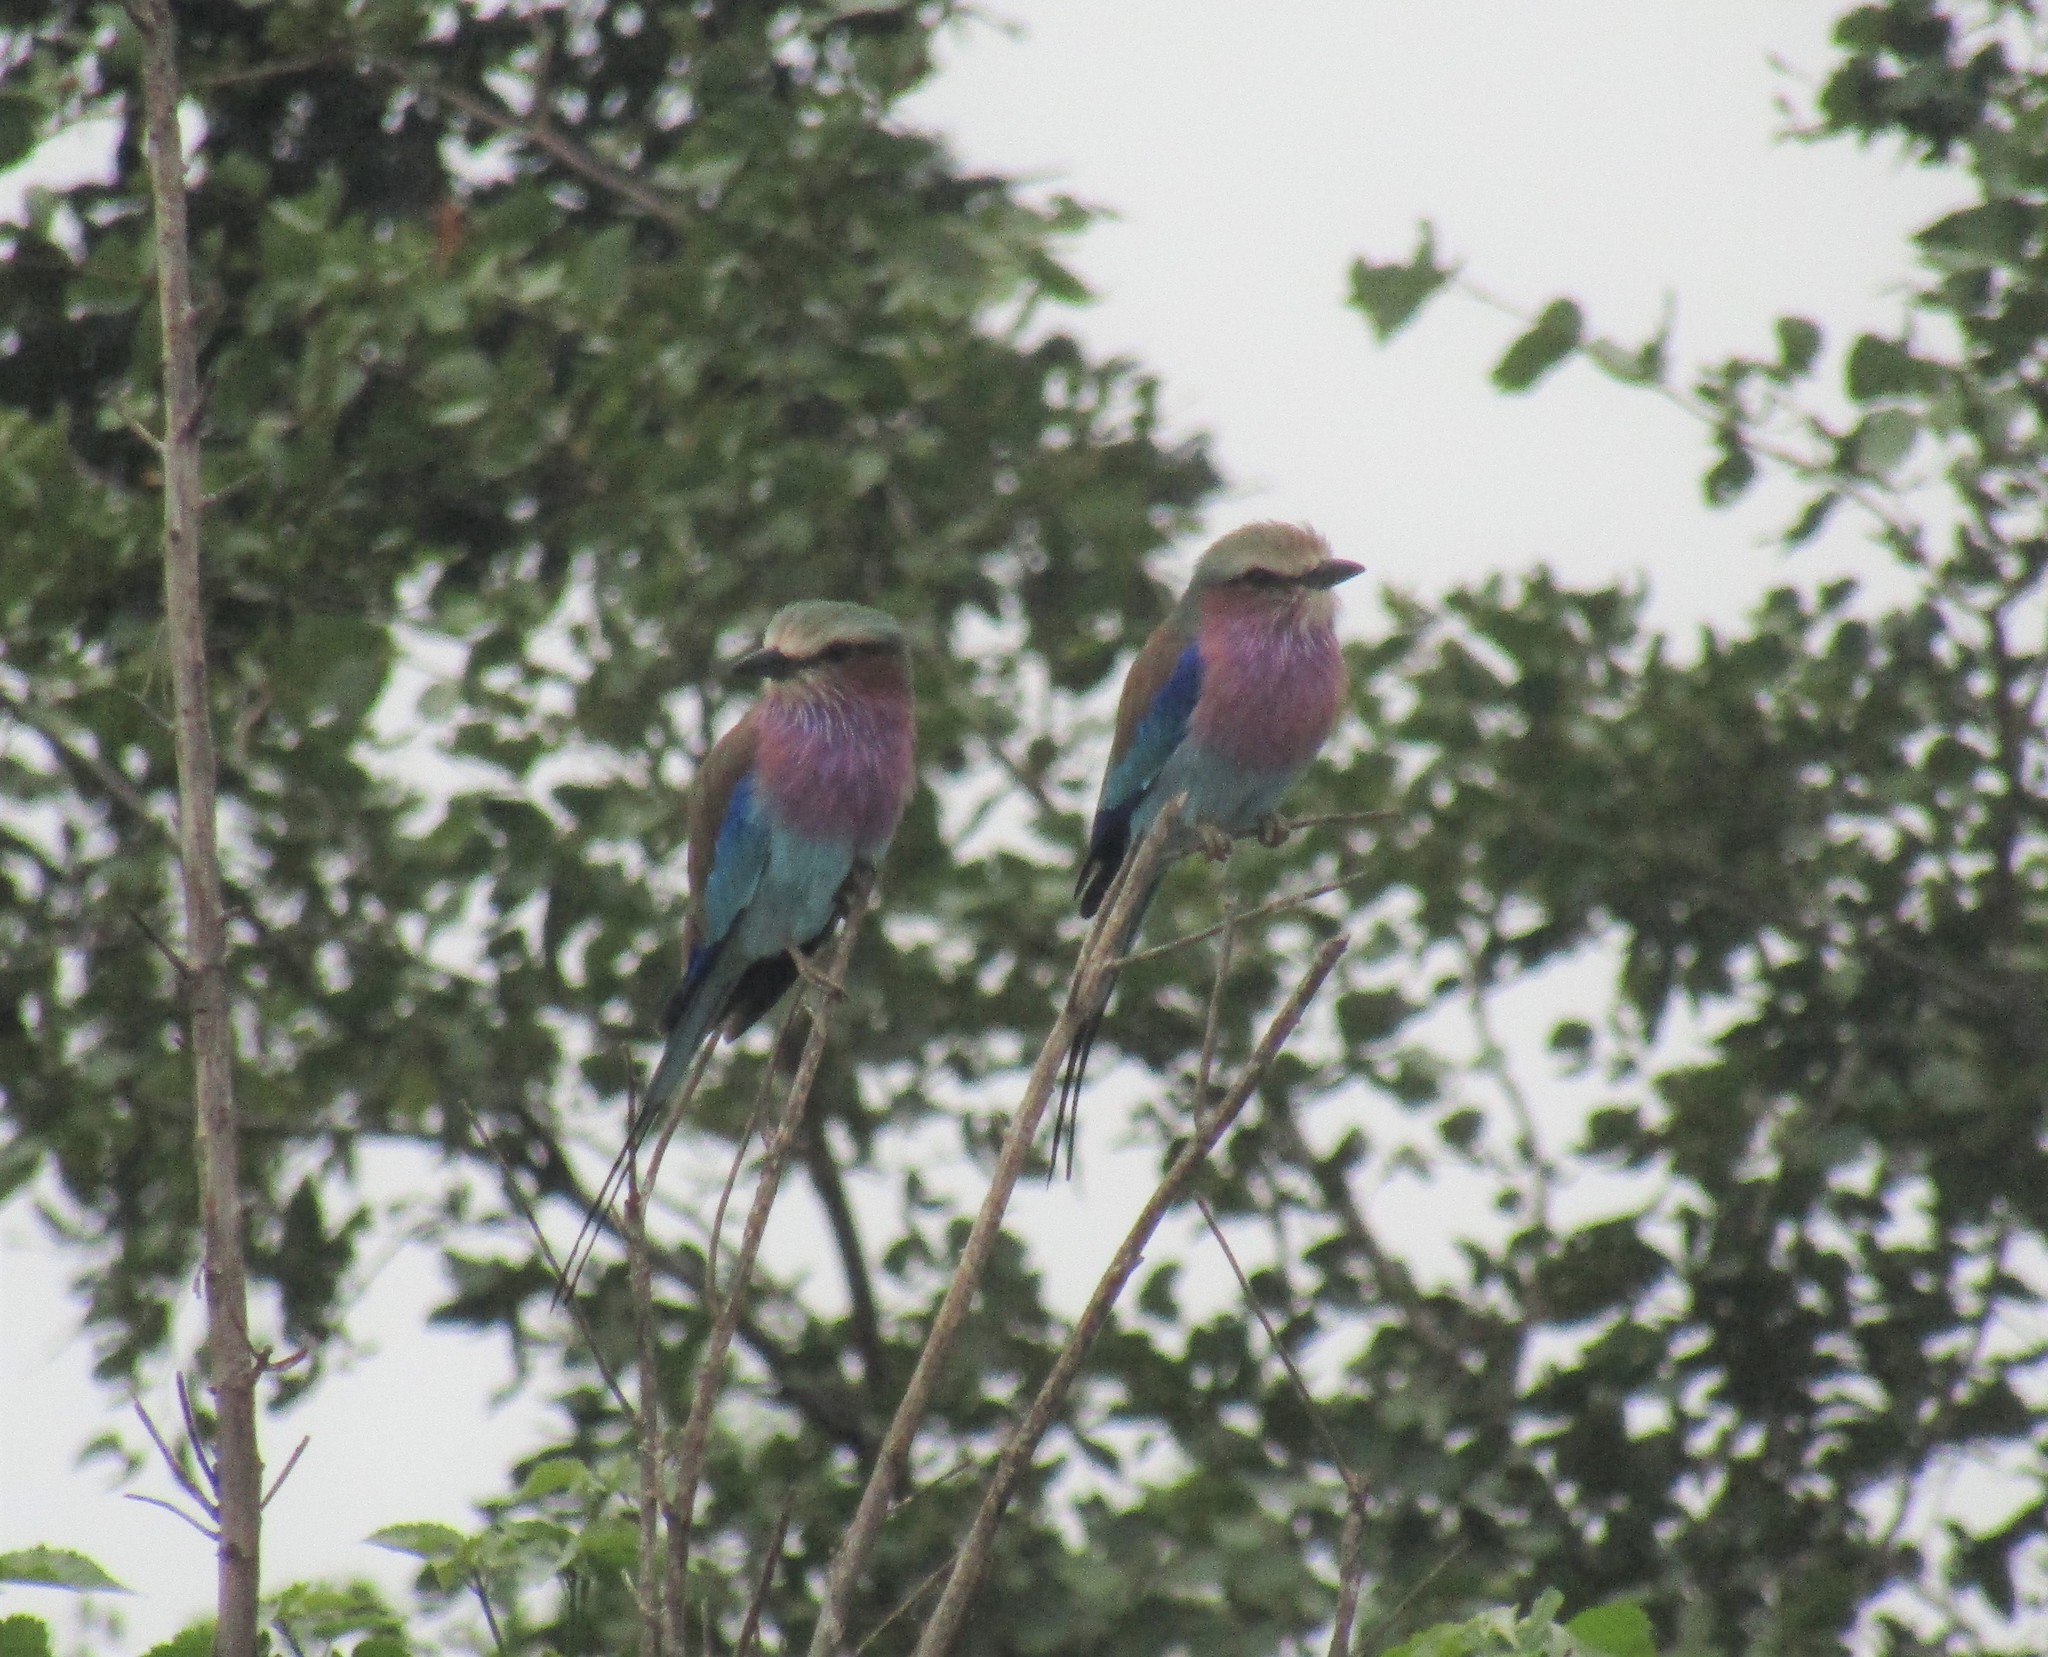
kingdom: Animalia
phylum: Chordata
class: Aves
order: Coraciiformes
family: Coraciidae
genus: Coracias
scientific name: Coracias caudatus
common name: Lilac-breasted roller
